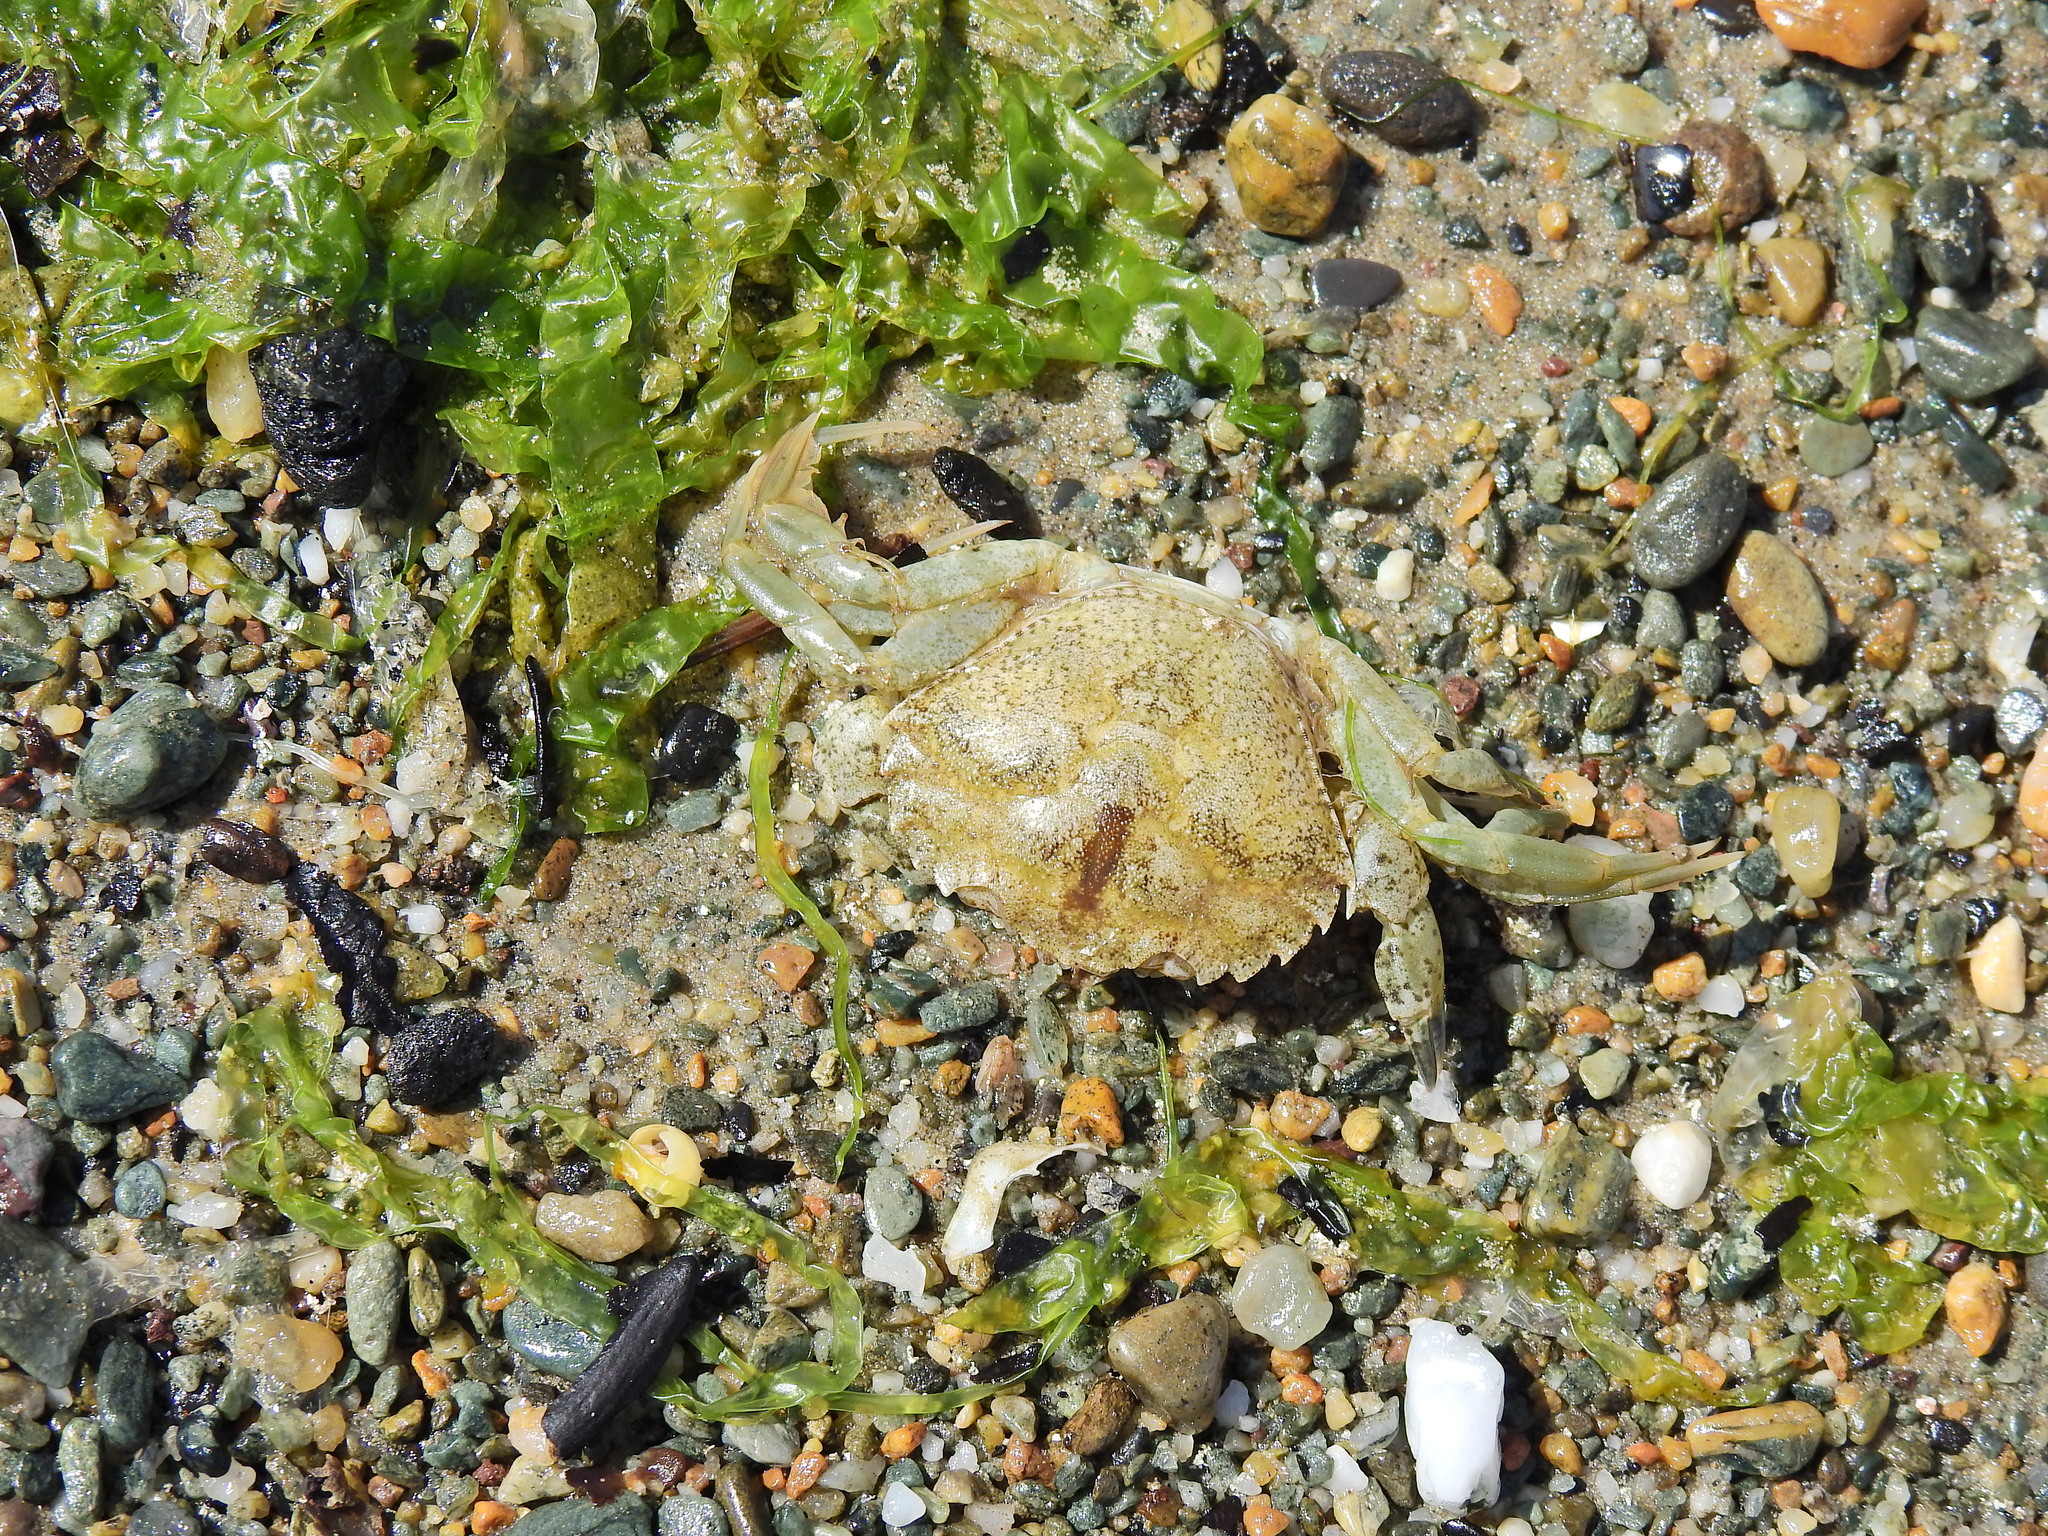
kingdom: Animalia
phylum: Arthropoda
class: Malacostraca
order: Decapoda
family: Carcinidae
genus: Carcinus
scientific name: Carcinus maenas
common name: European green crab
